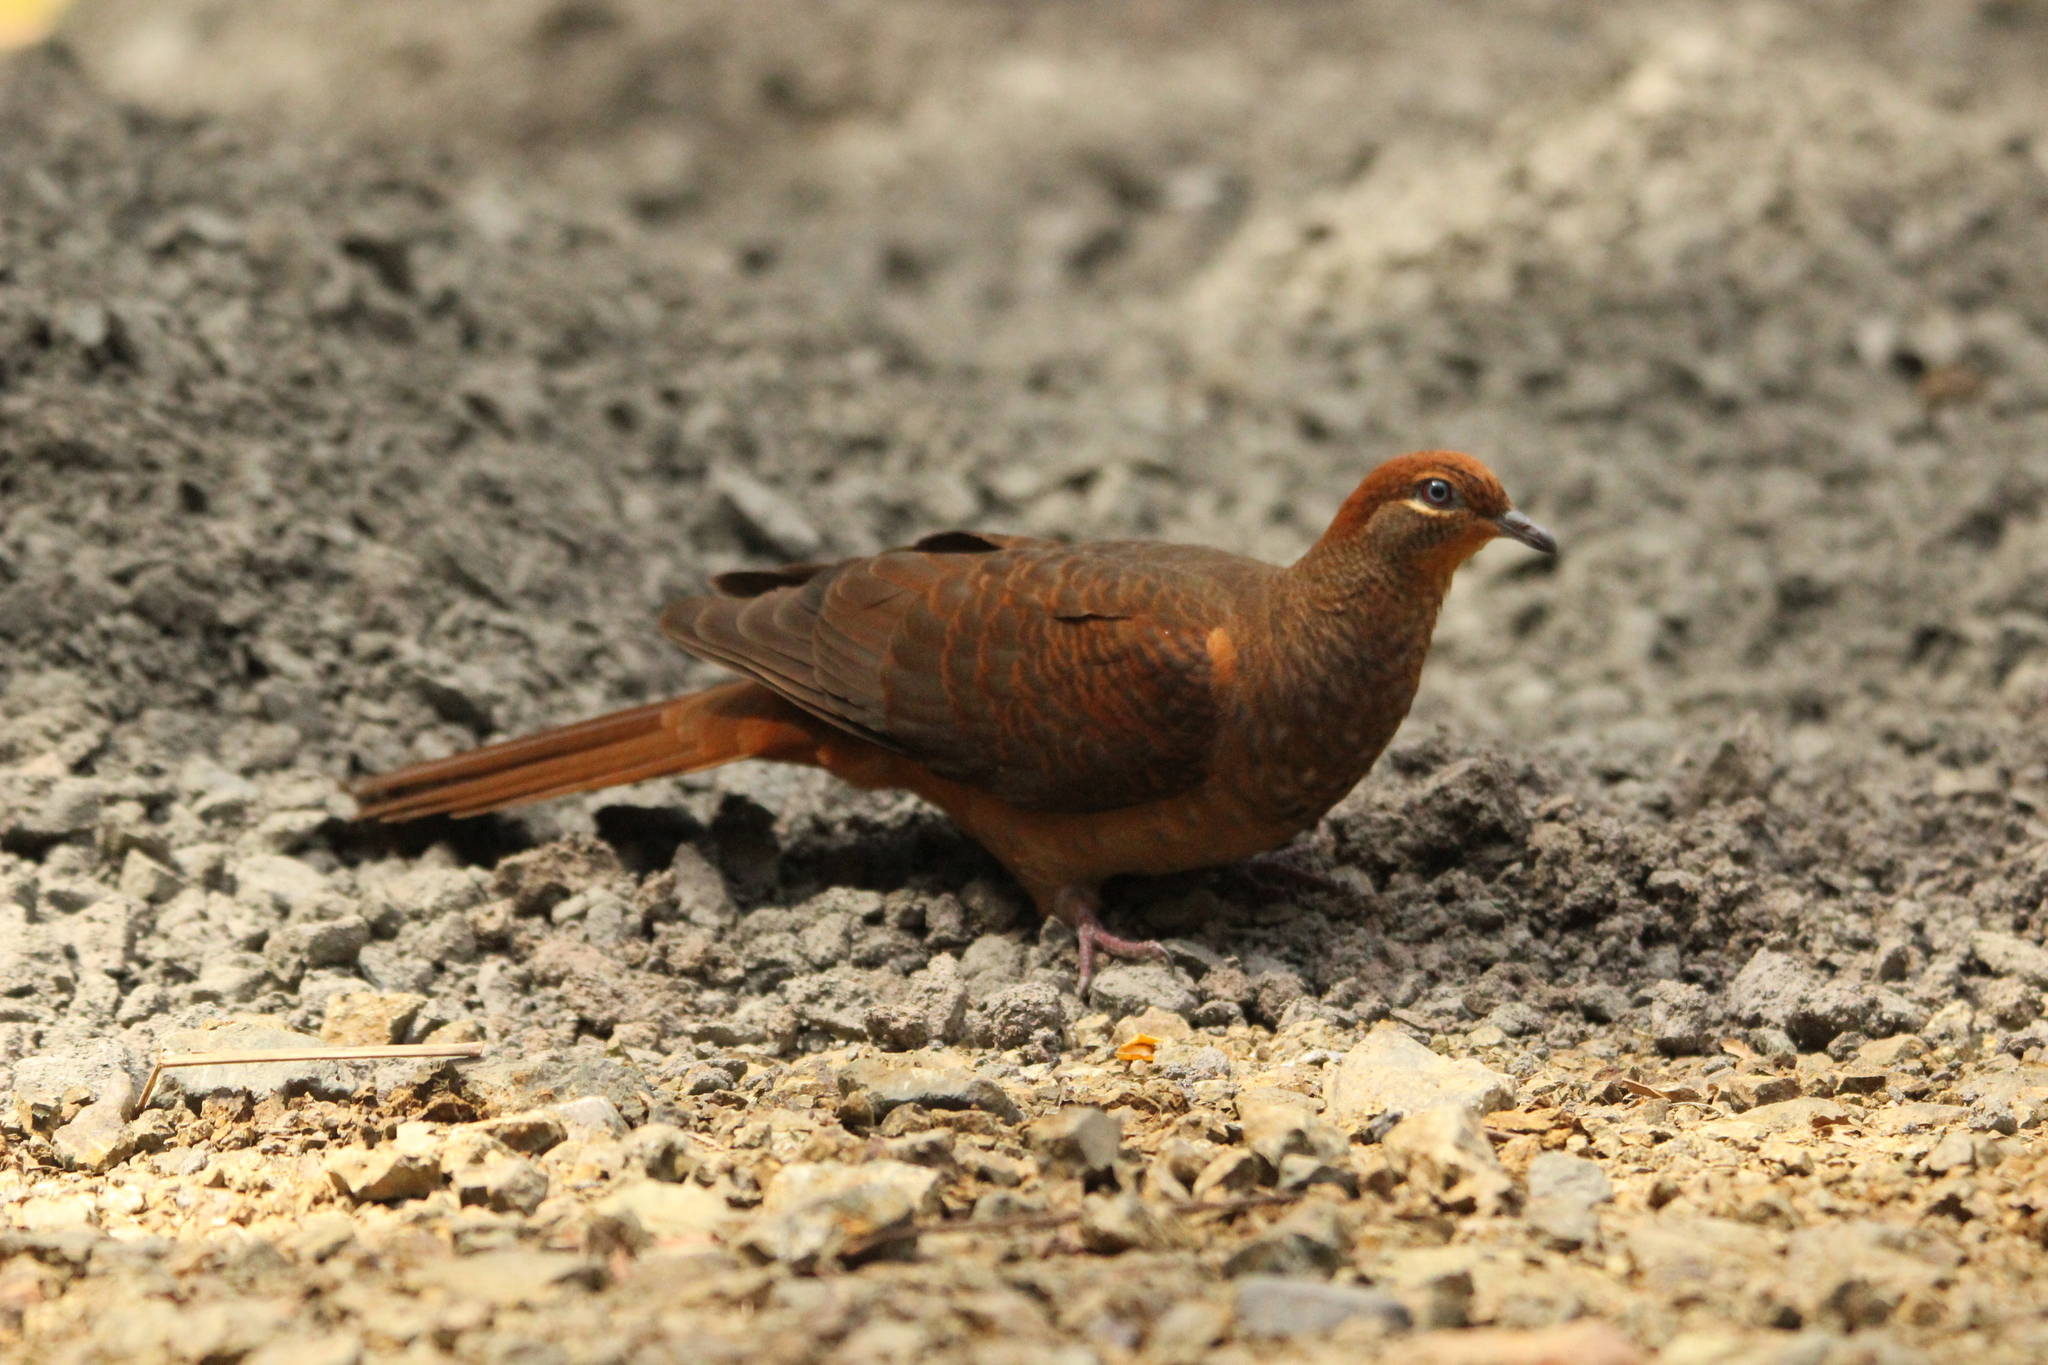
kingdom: Animalia
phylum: Chordata
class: Aves
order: Columbiformes
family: Columbidae
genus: Macropygia
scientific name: Macropygia phasianella
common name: Brown cuckoo-dove
